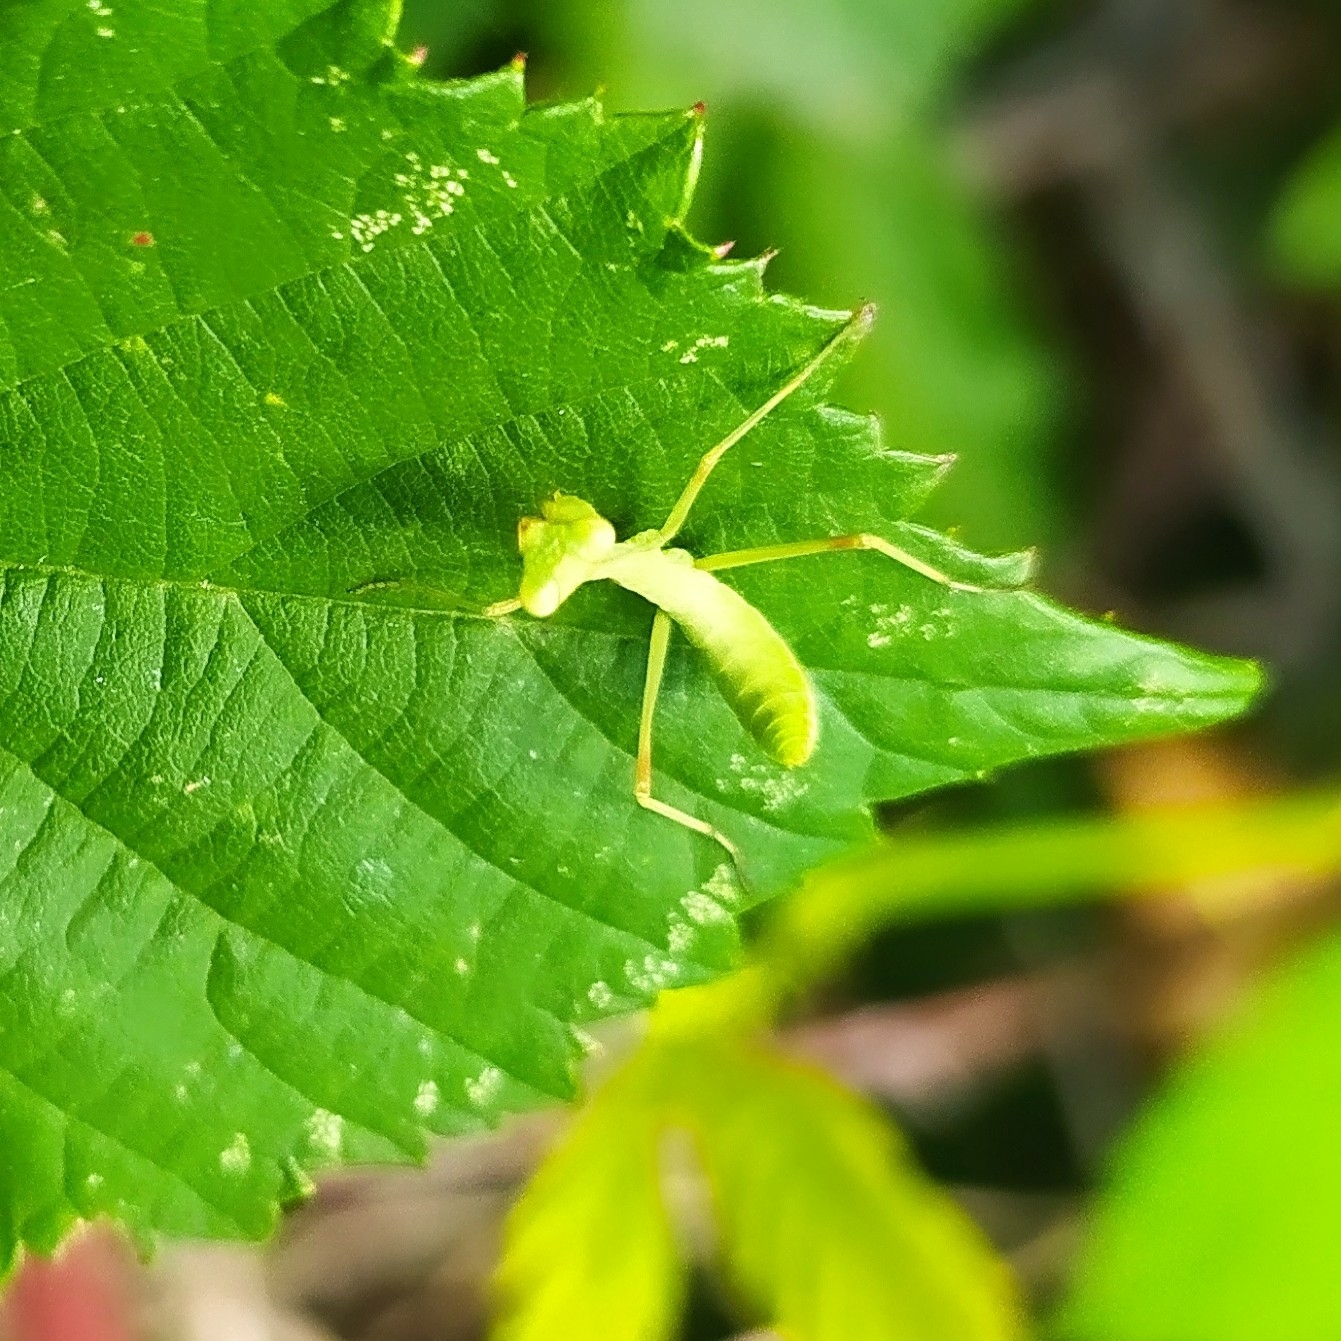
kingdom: Animalia
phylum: Arthropoda
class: Insecta
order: Mantodea
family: Mantidae
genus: Hierodula
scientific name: Hierodula transcaucasica
